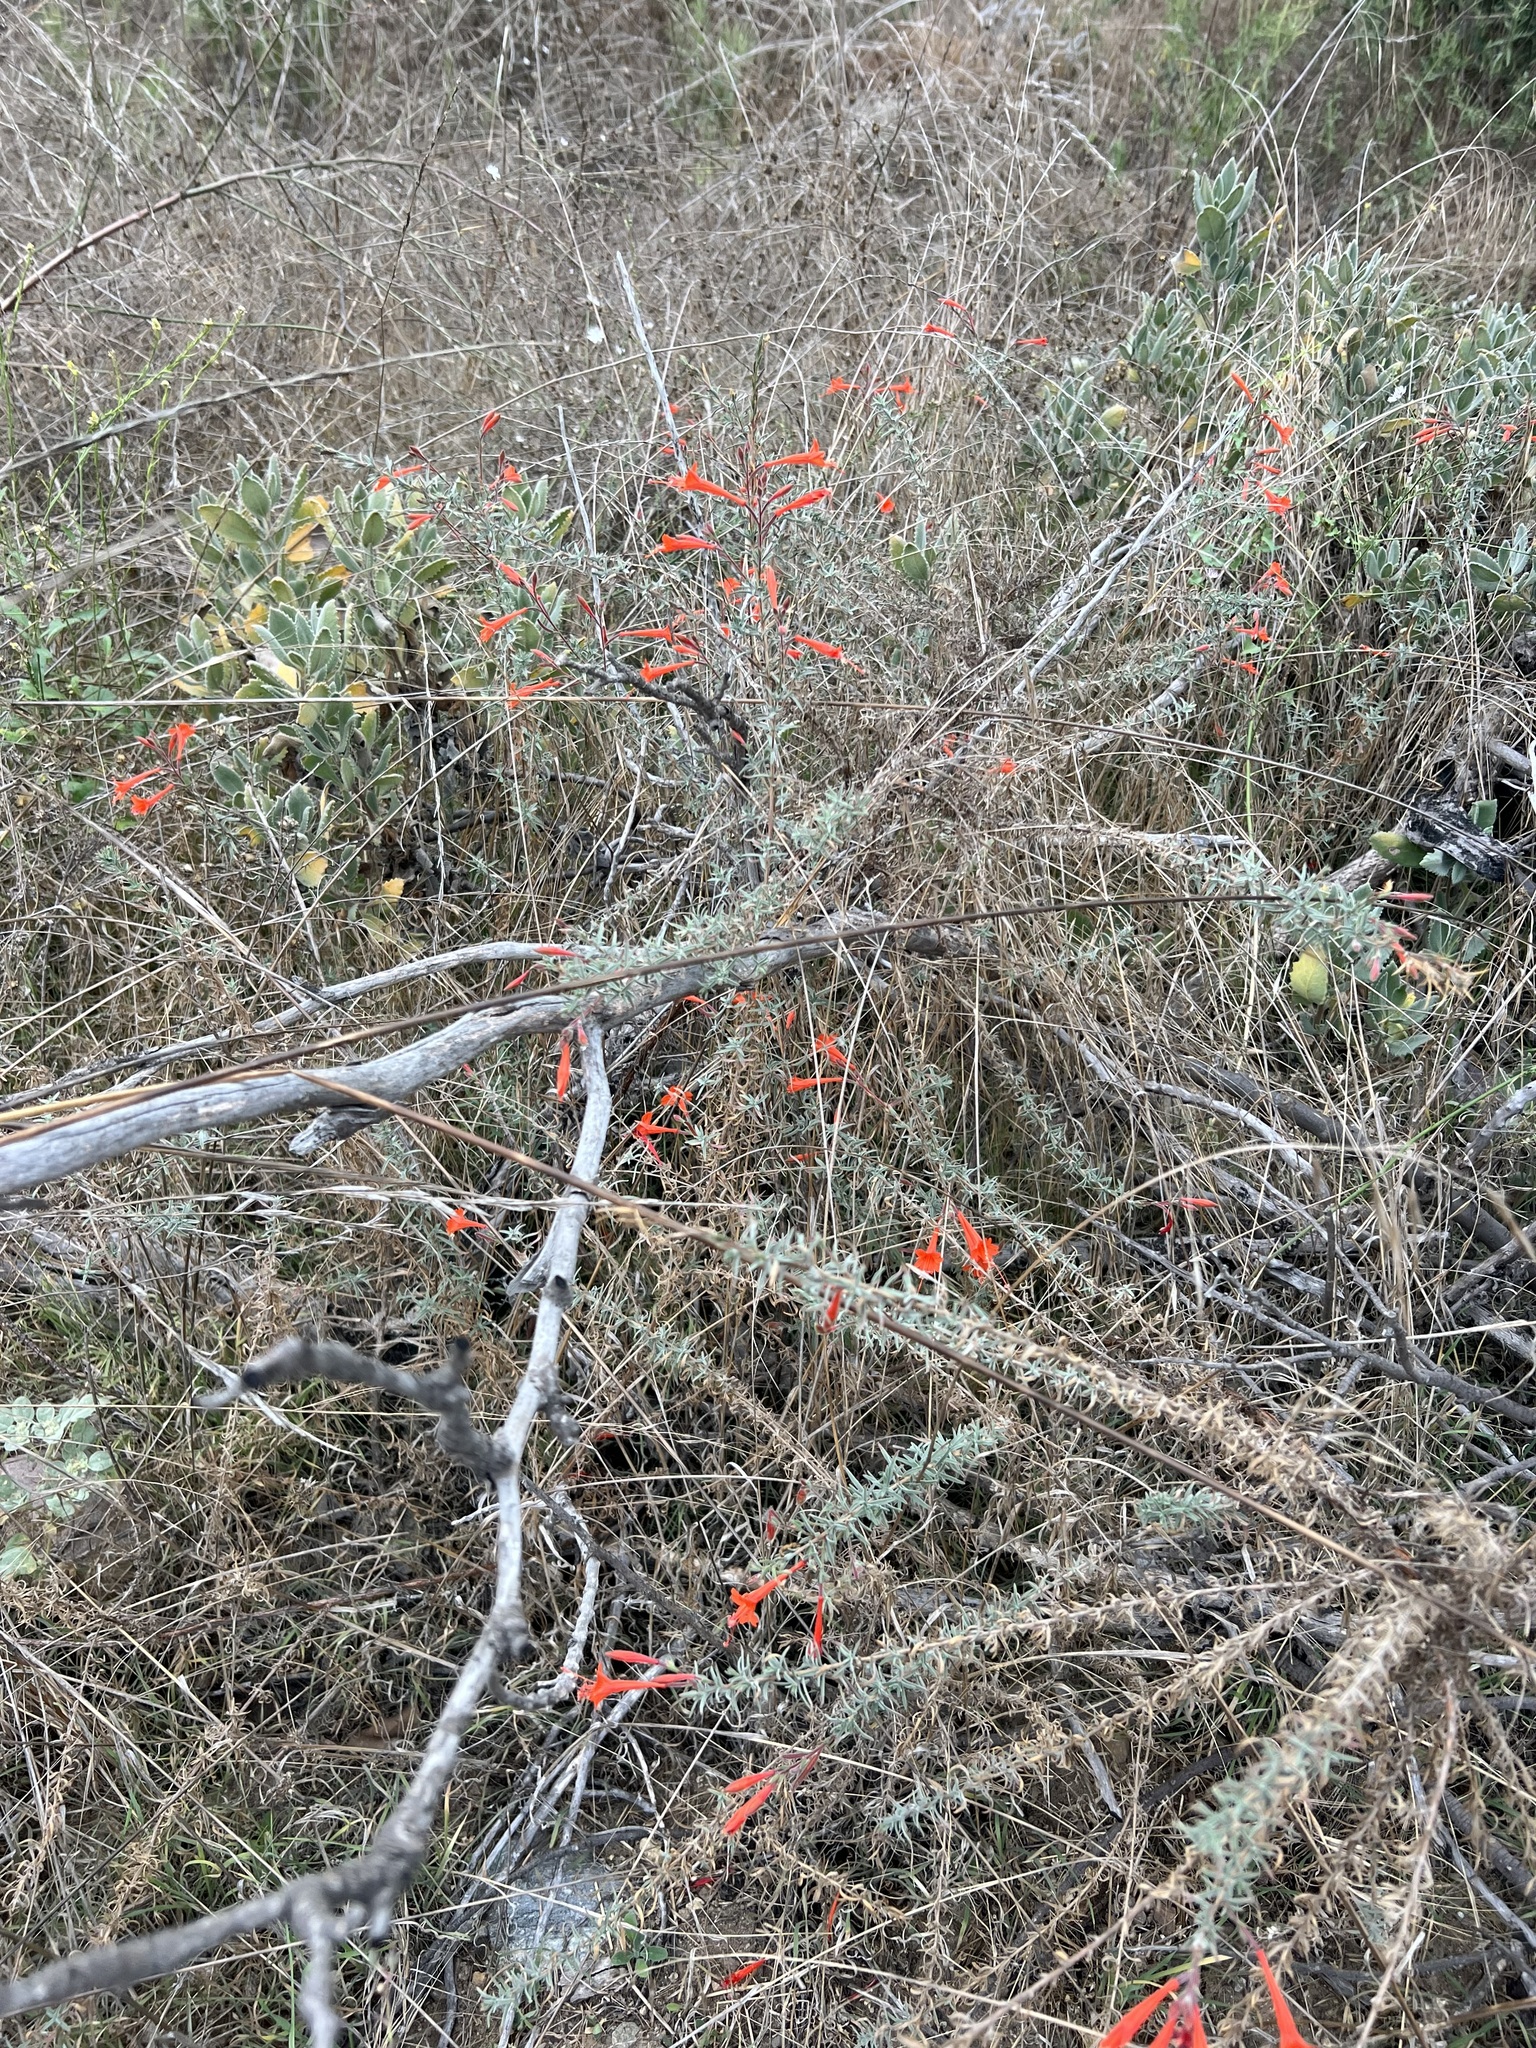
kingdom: Plantae
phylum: Tracheophyta
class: Magnoliopsida
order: Myrtales
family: Onagraceae
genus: Epilobium
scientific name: Epilobium canum
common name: California-fuchsia
